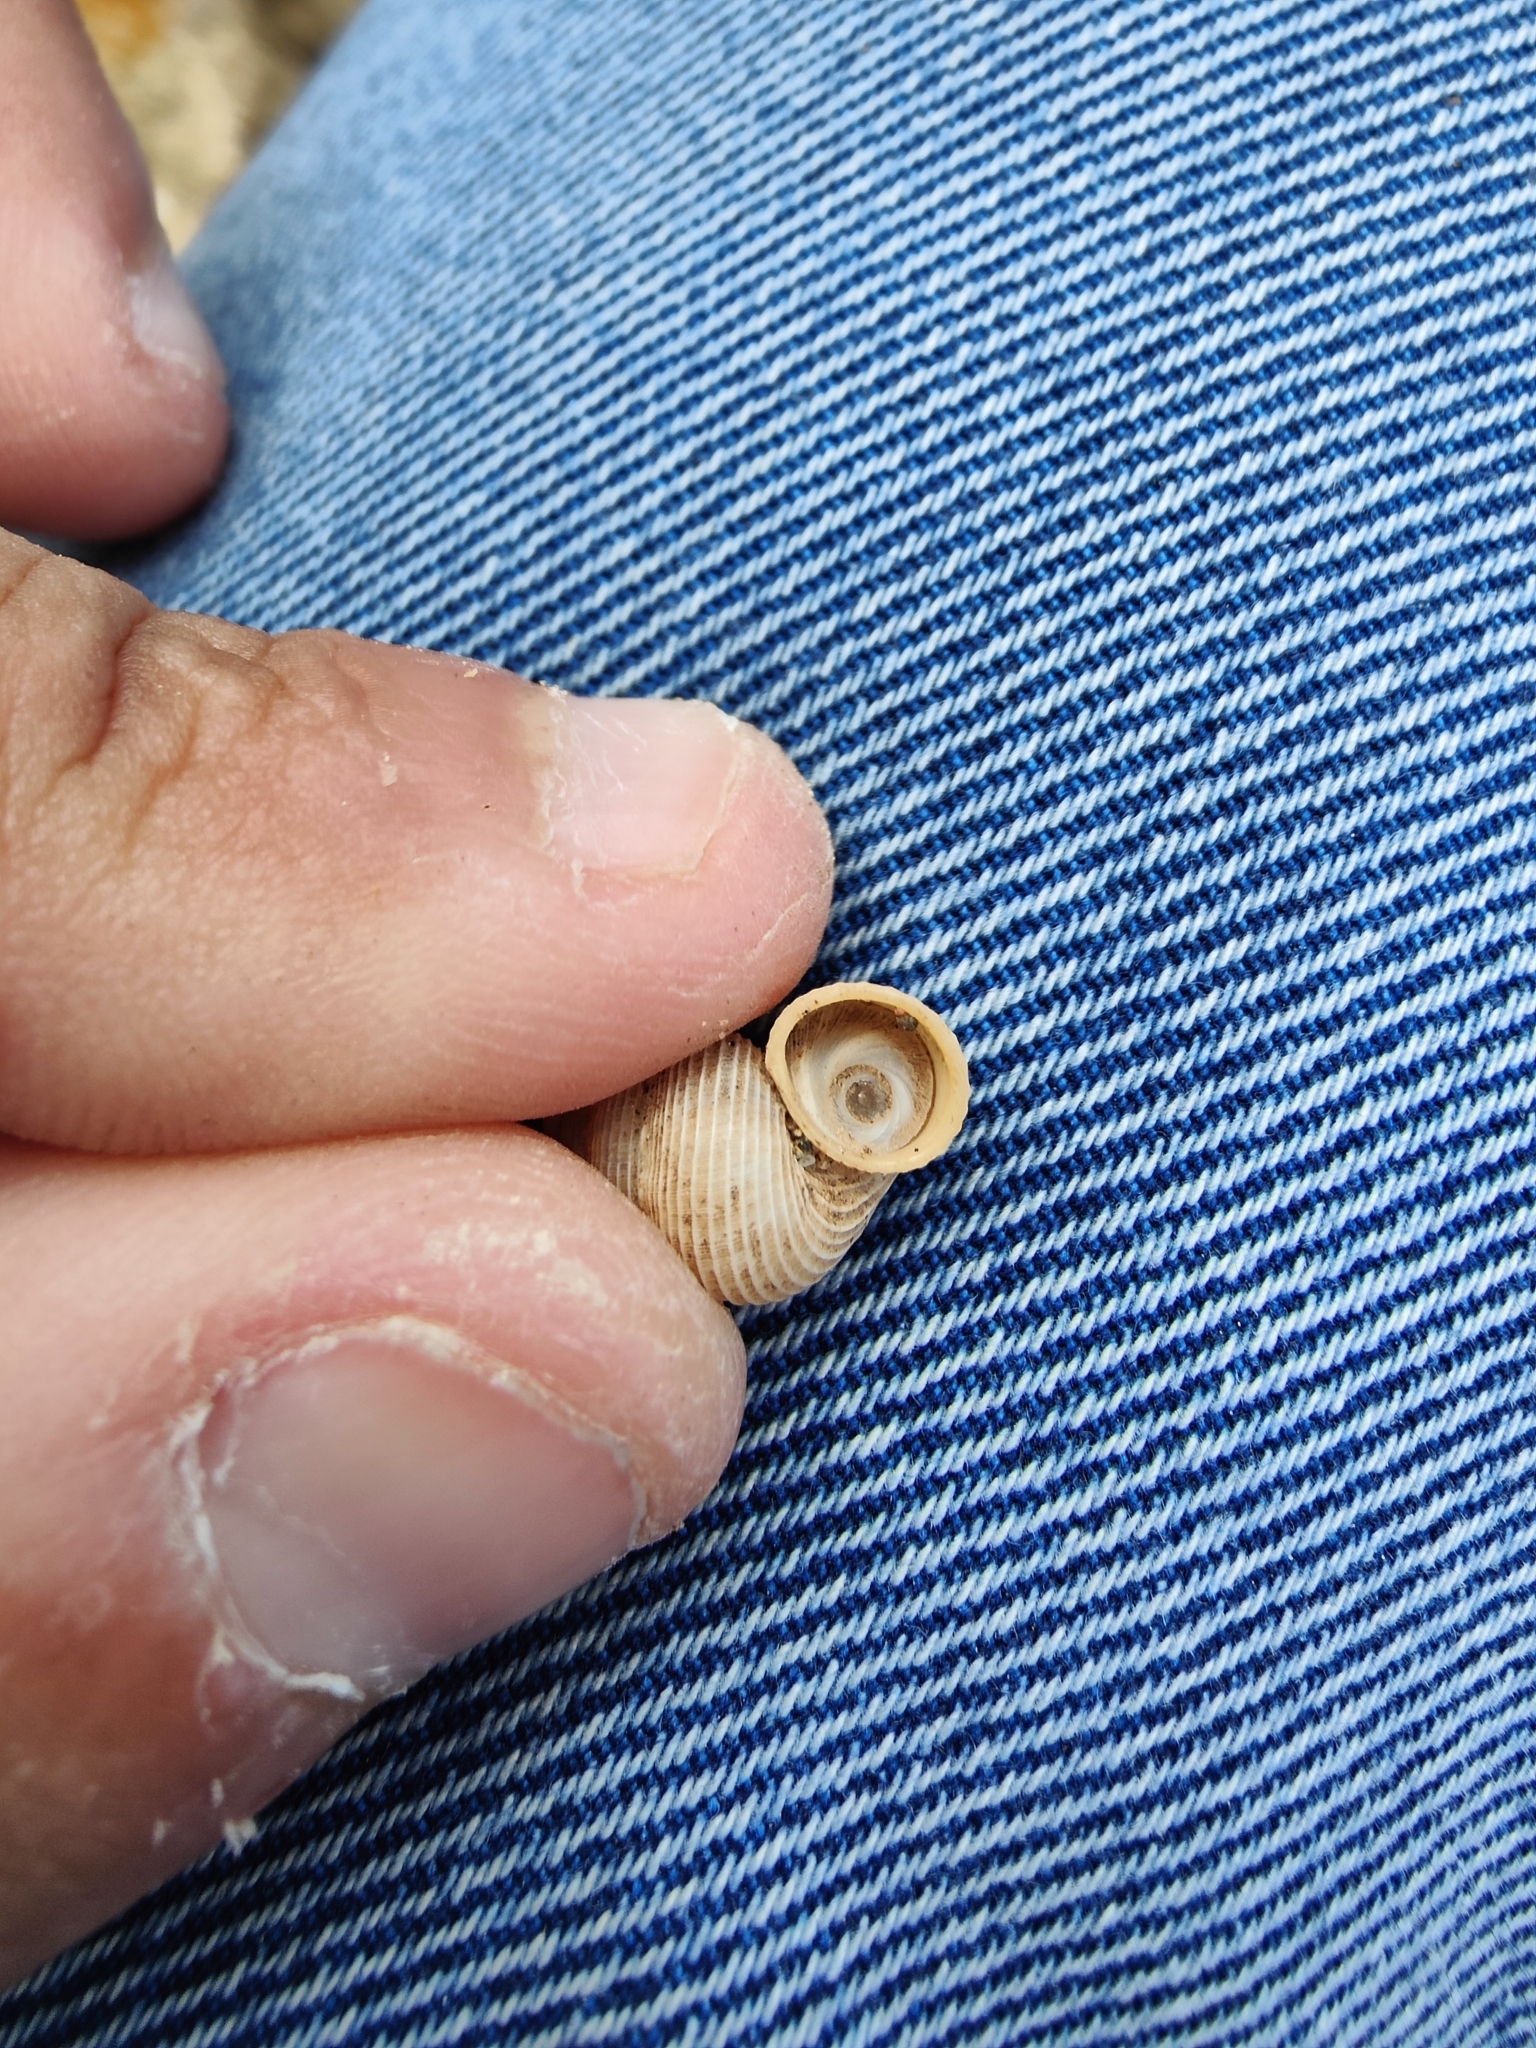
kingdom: Animalia
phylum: Mollusca
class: Gastropoda
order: Littorinimorpha
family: Pomatiidae
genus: Tudorella
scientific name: Tudorella sulcata
